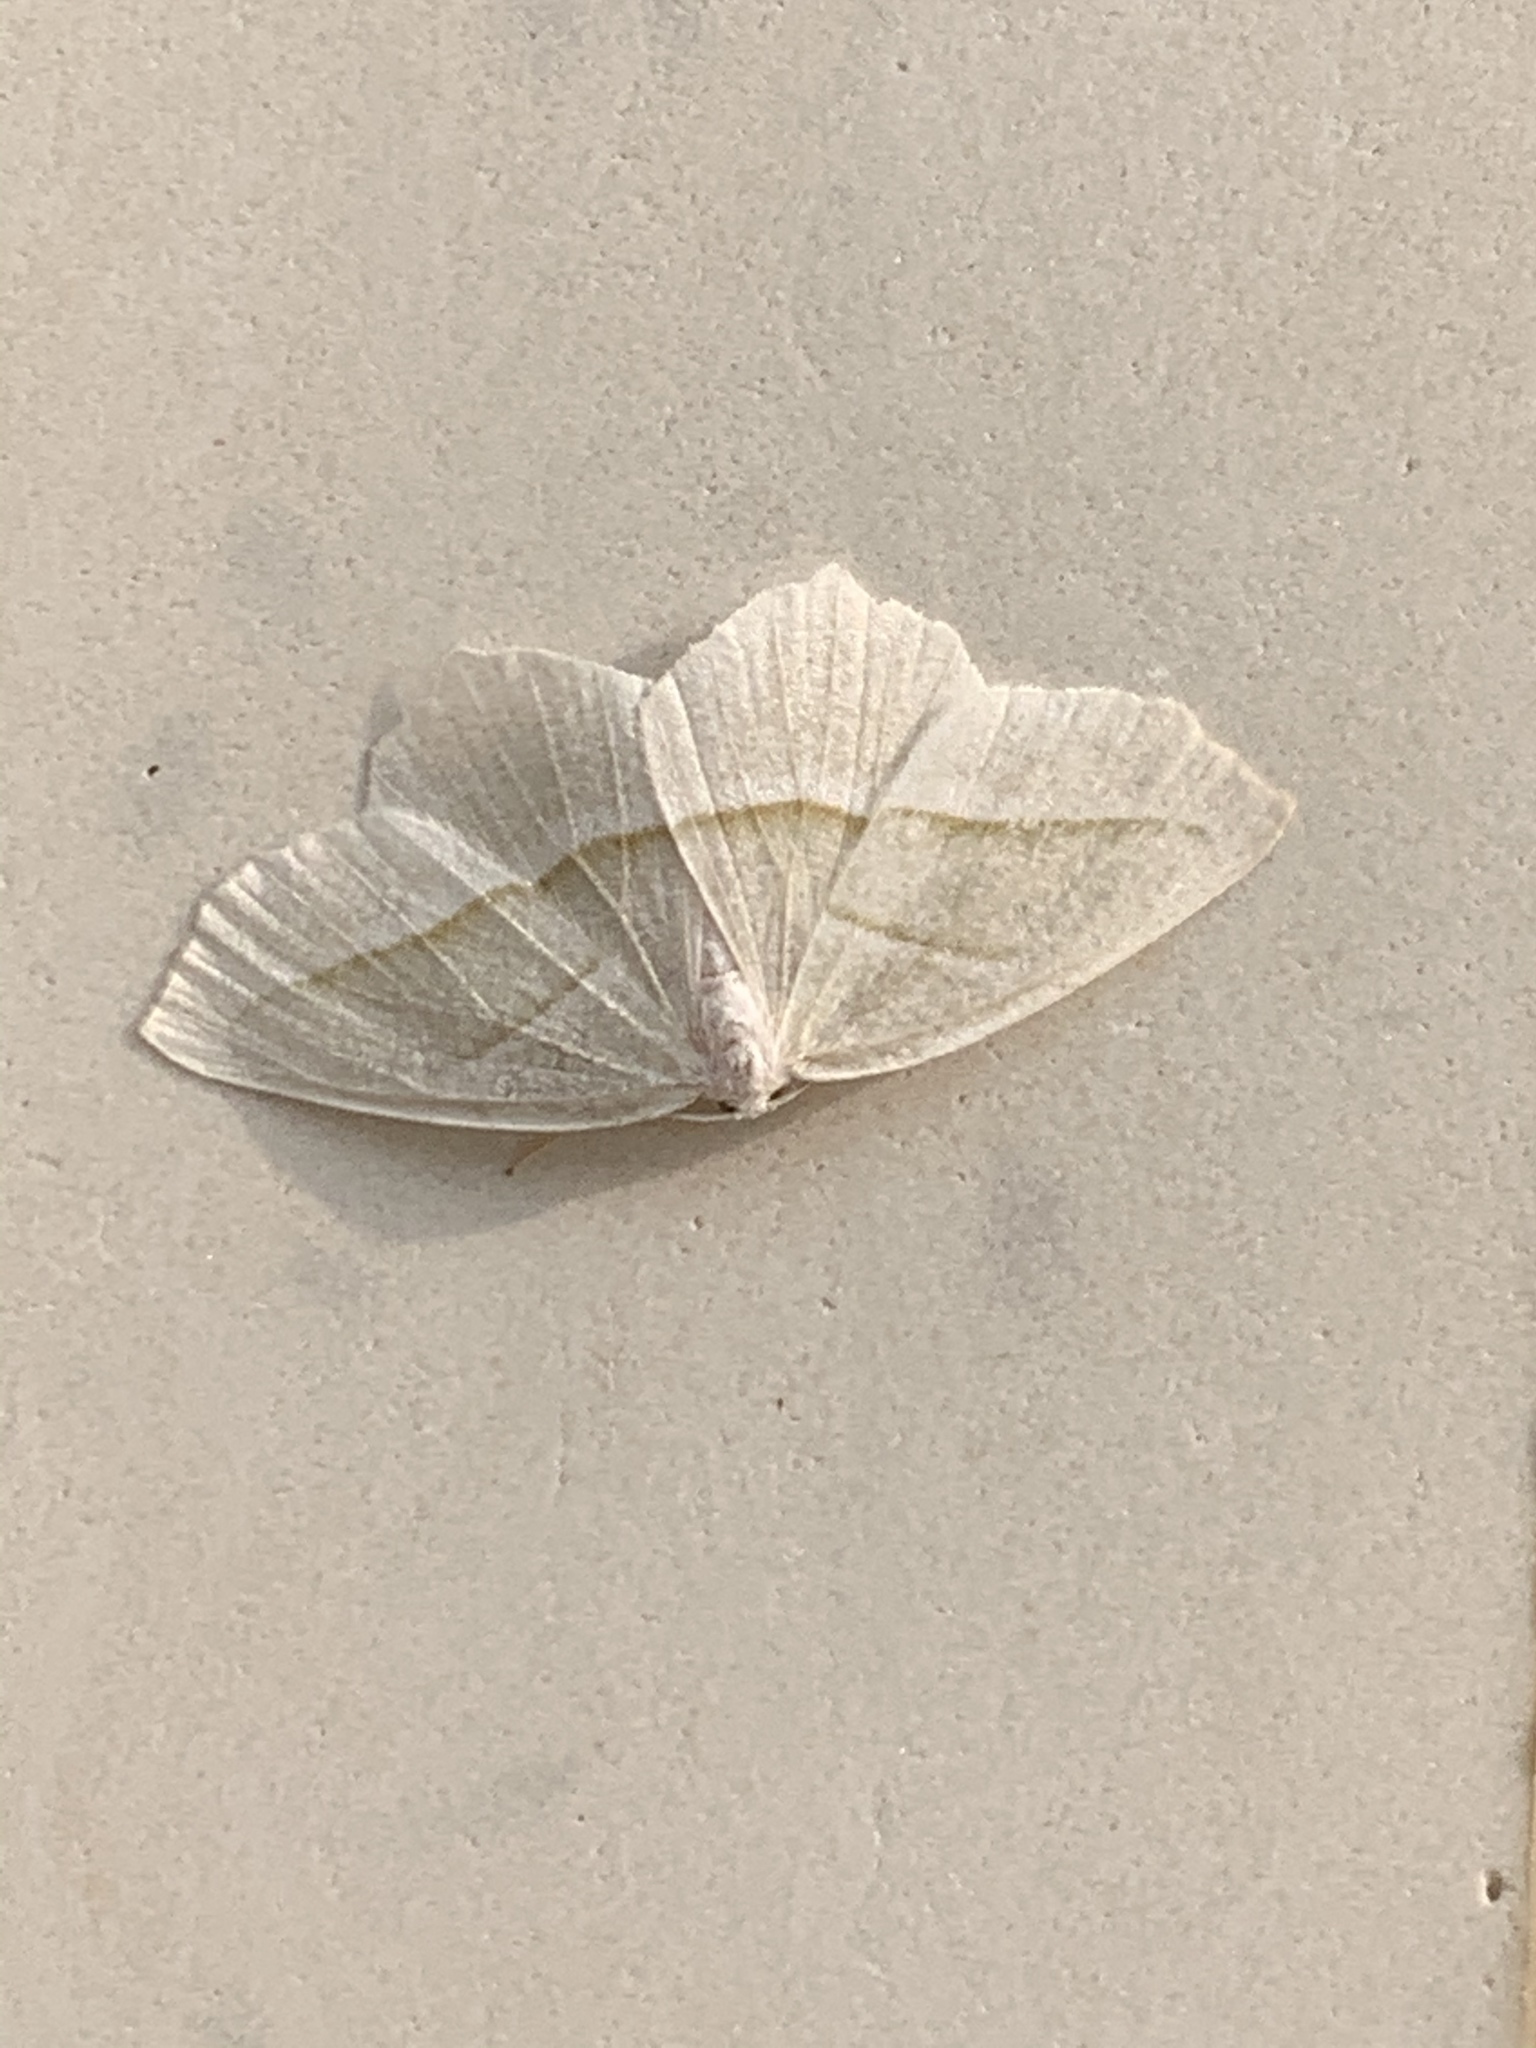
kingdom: Animalia
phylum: Arthropoda
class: Insecta
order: Lepidoptera
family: Geometridae
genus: Campaea
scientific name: Campaea perlata
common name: Fringed looper
